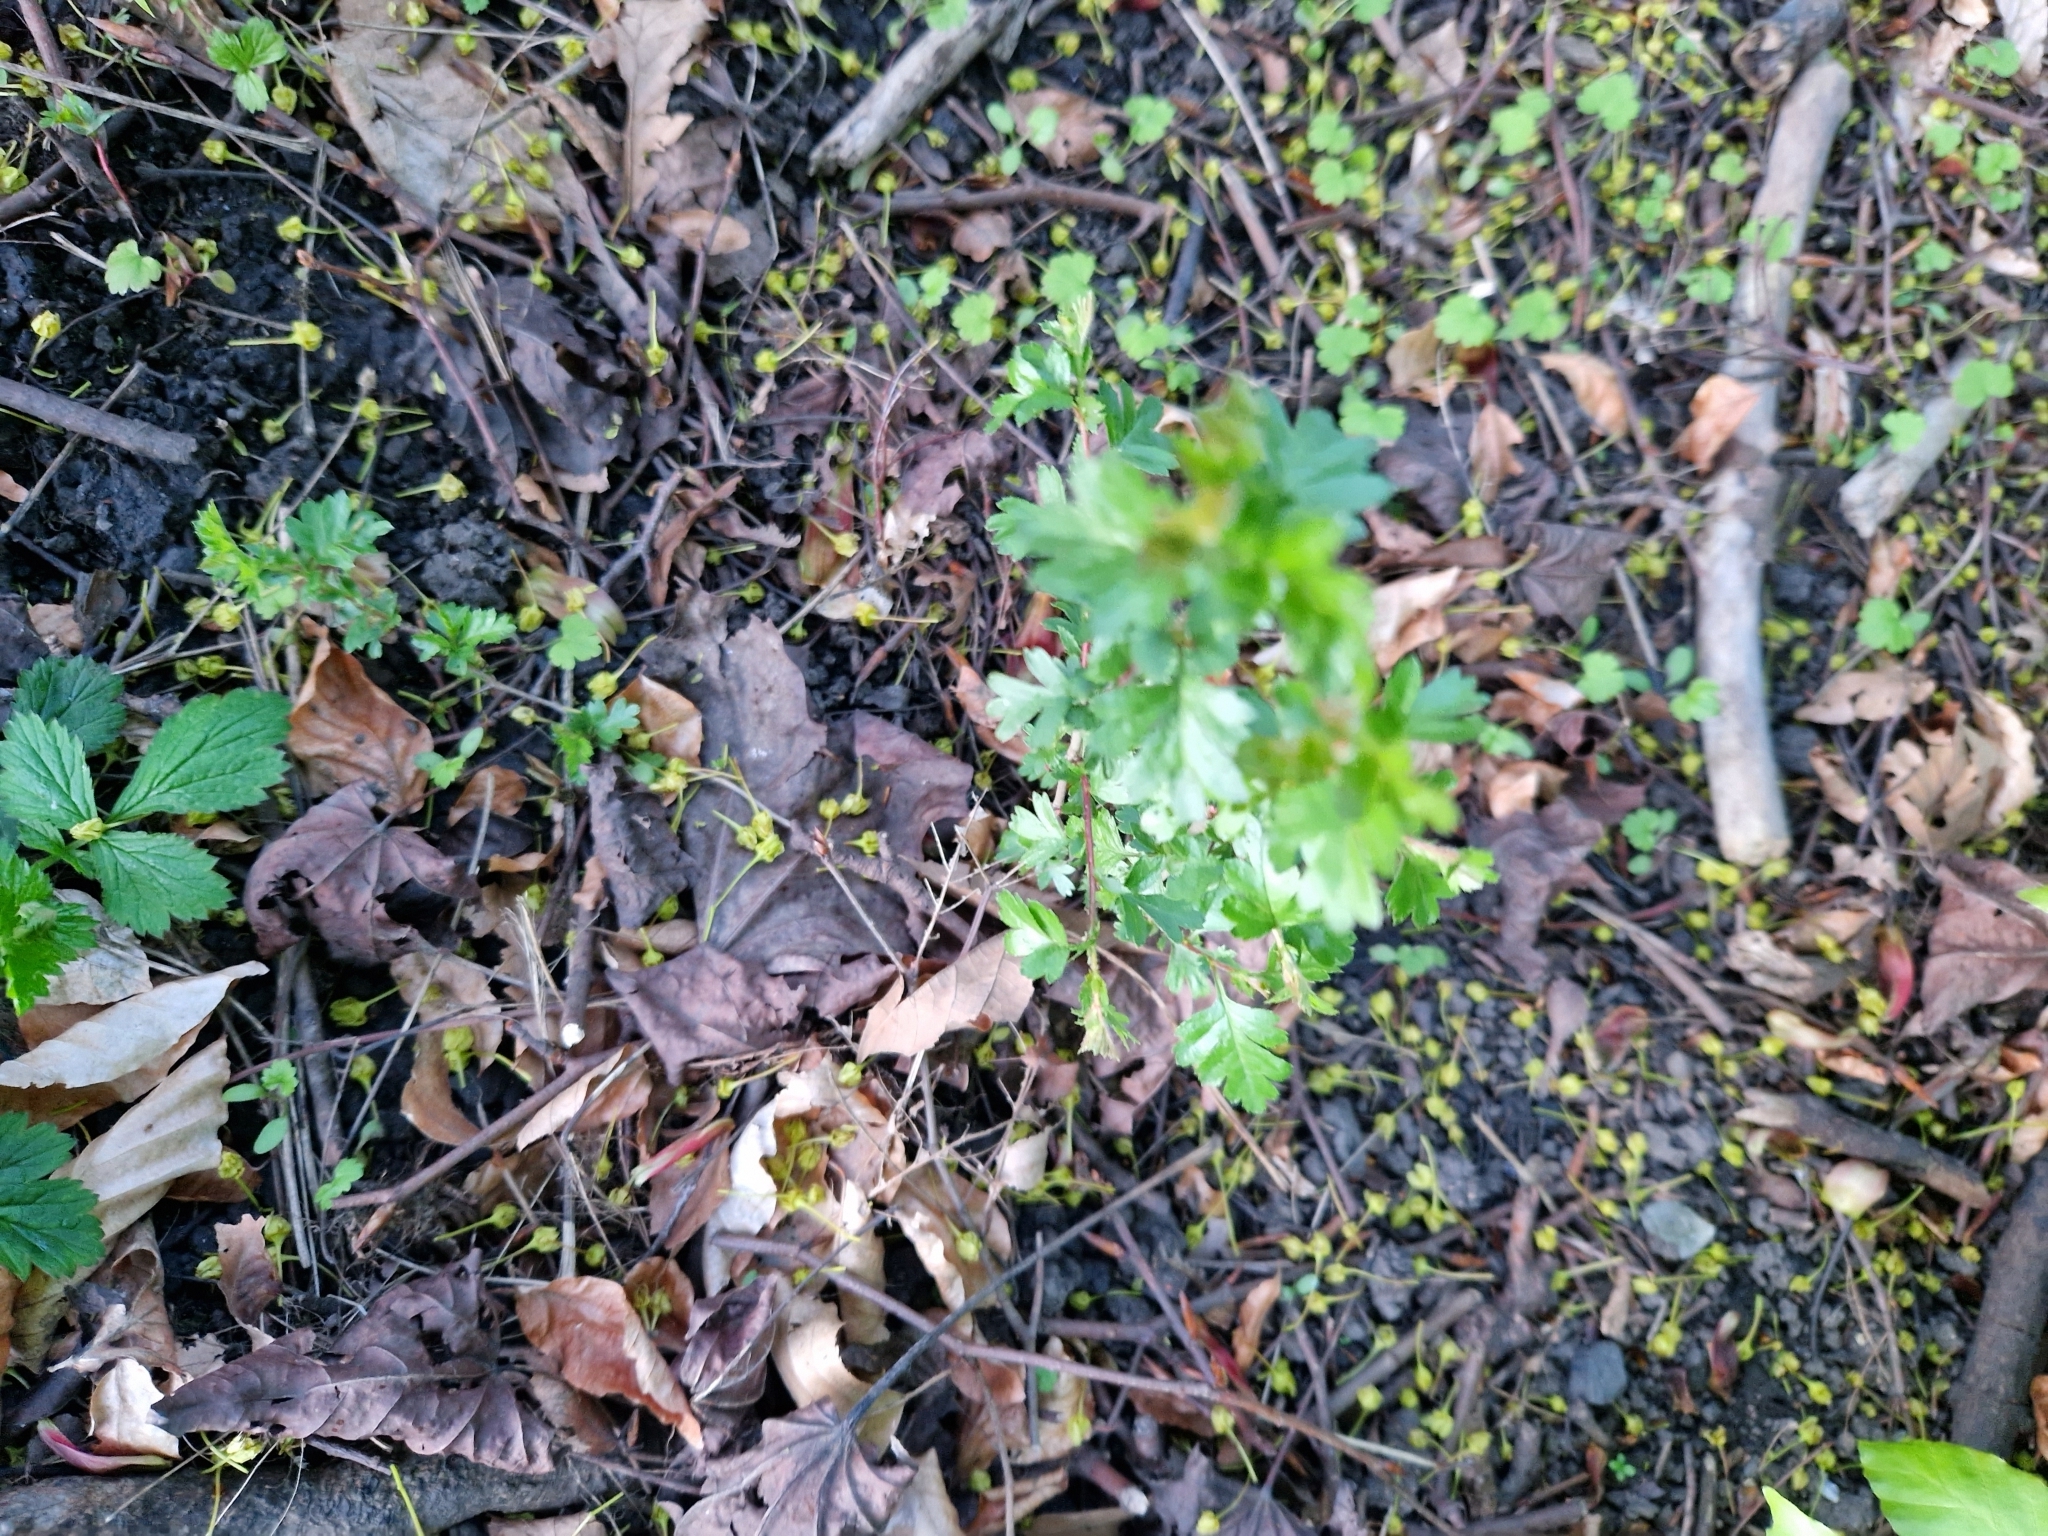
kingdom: Plantae
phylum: Tracheophyta
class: Magnoliopsida
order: Rosales
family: Rosaceae
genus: Crataegus
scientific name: Crataegus monogyna
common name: Hawthorn
